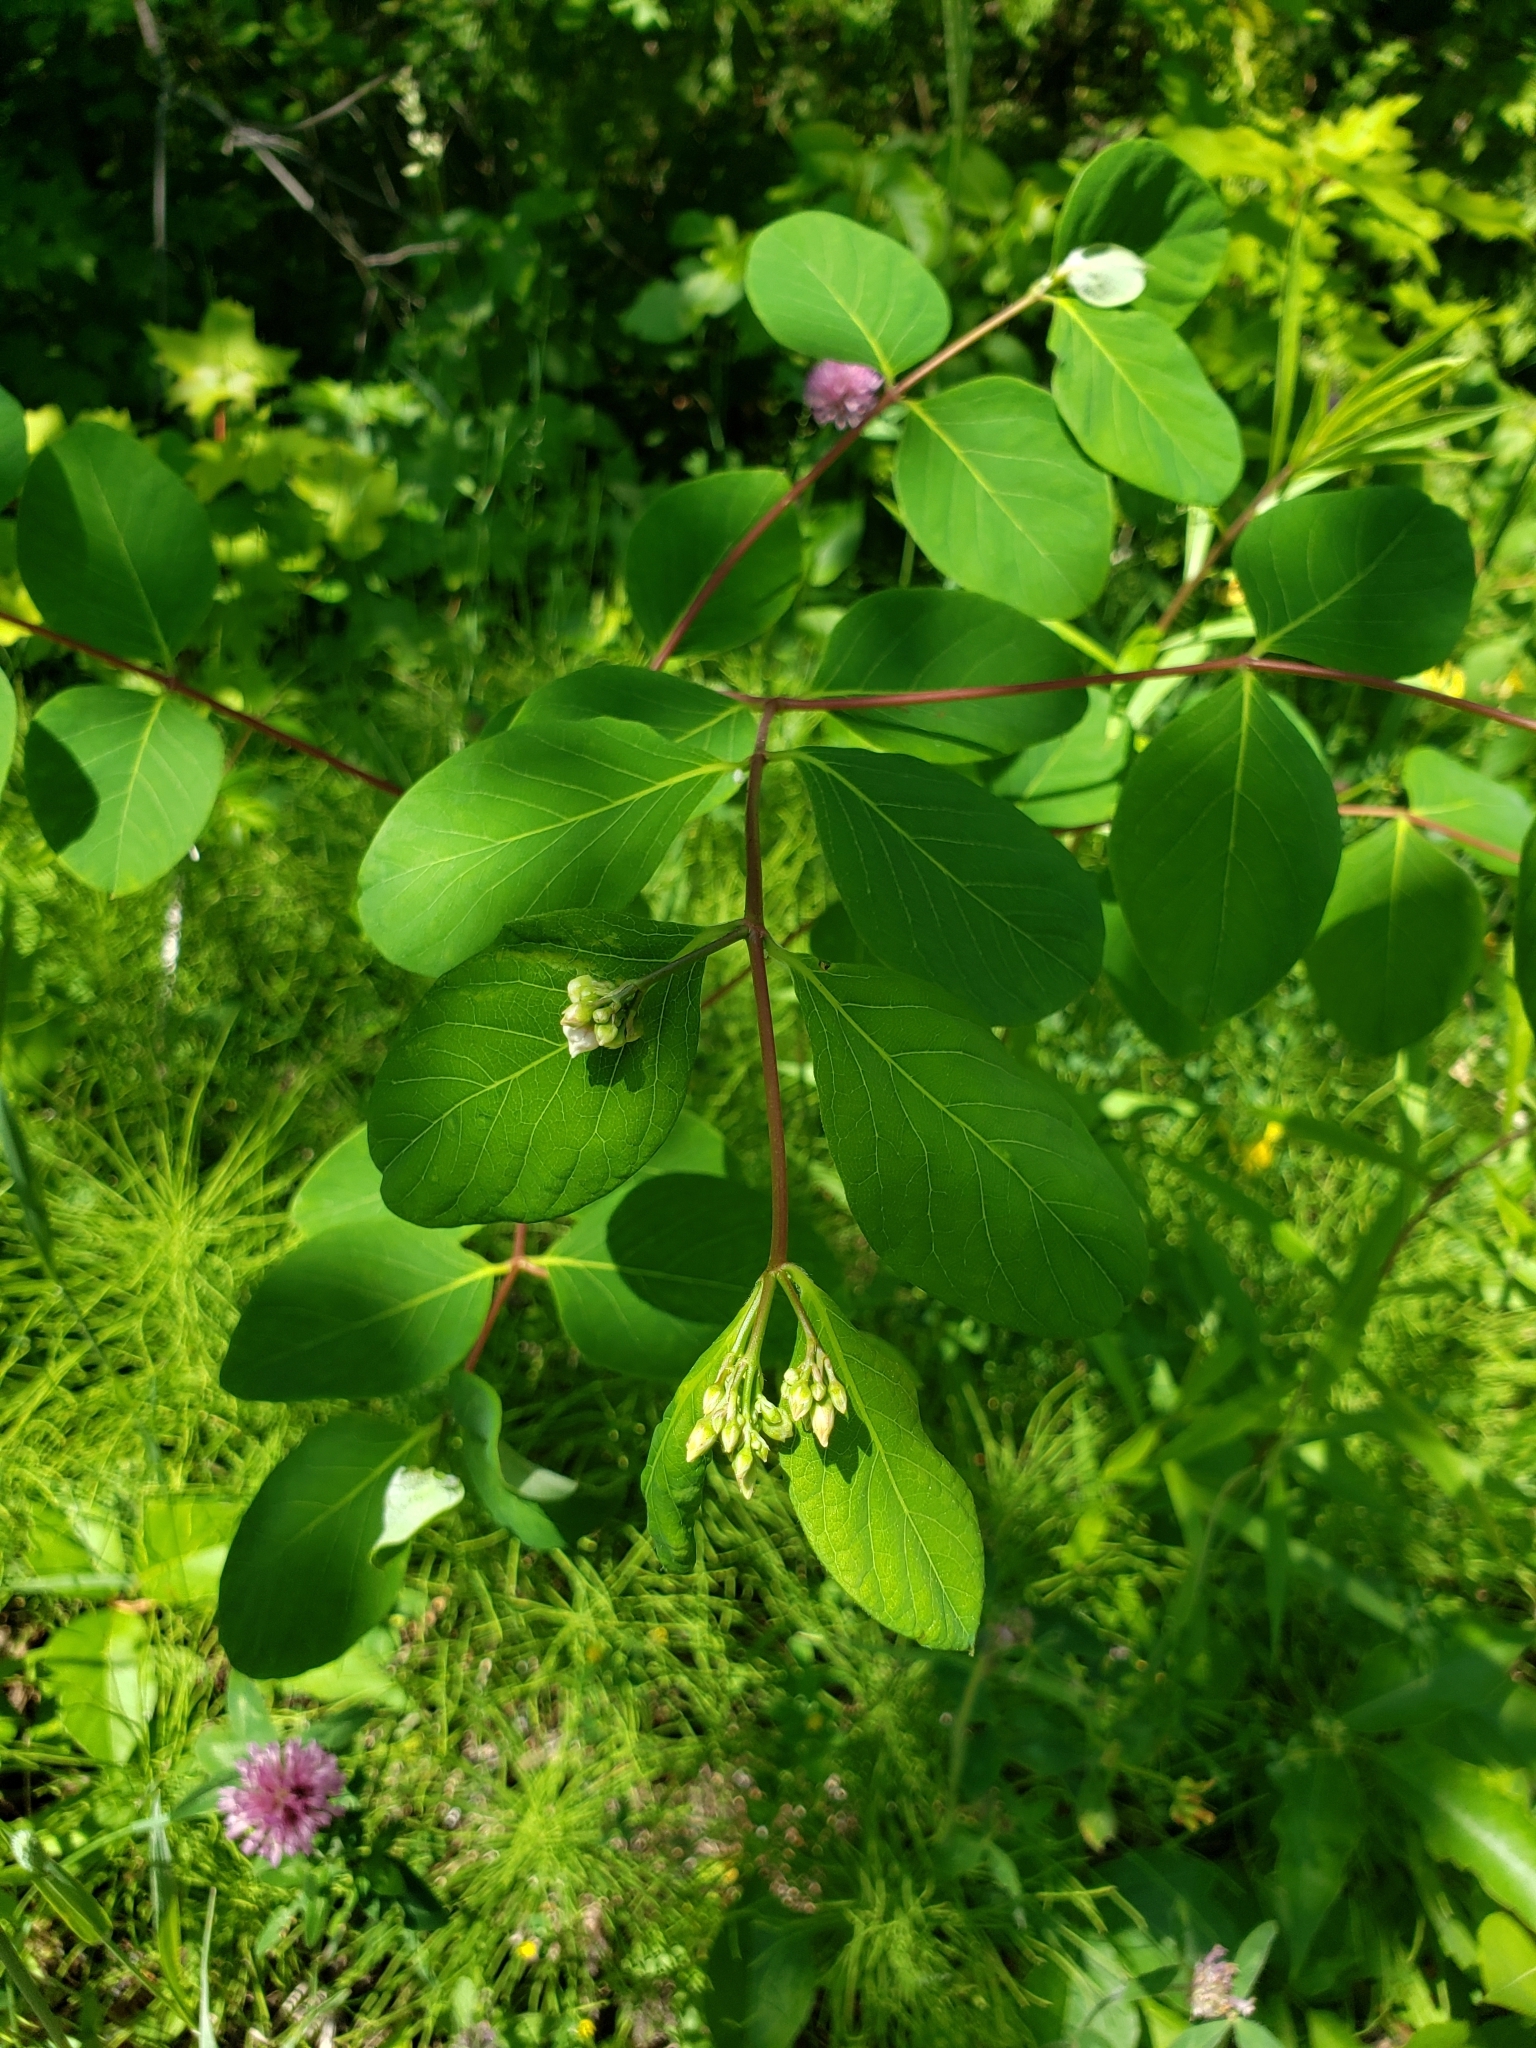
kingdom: Plantae
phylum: Tracheophyta
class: Magnoliopsida
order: Gentianales
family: Apocynaceae
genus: Apocynum
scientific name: Apocynum androsaemifolium
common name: Spreading dogbane
